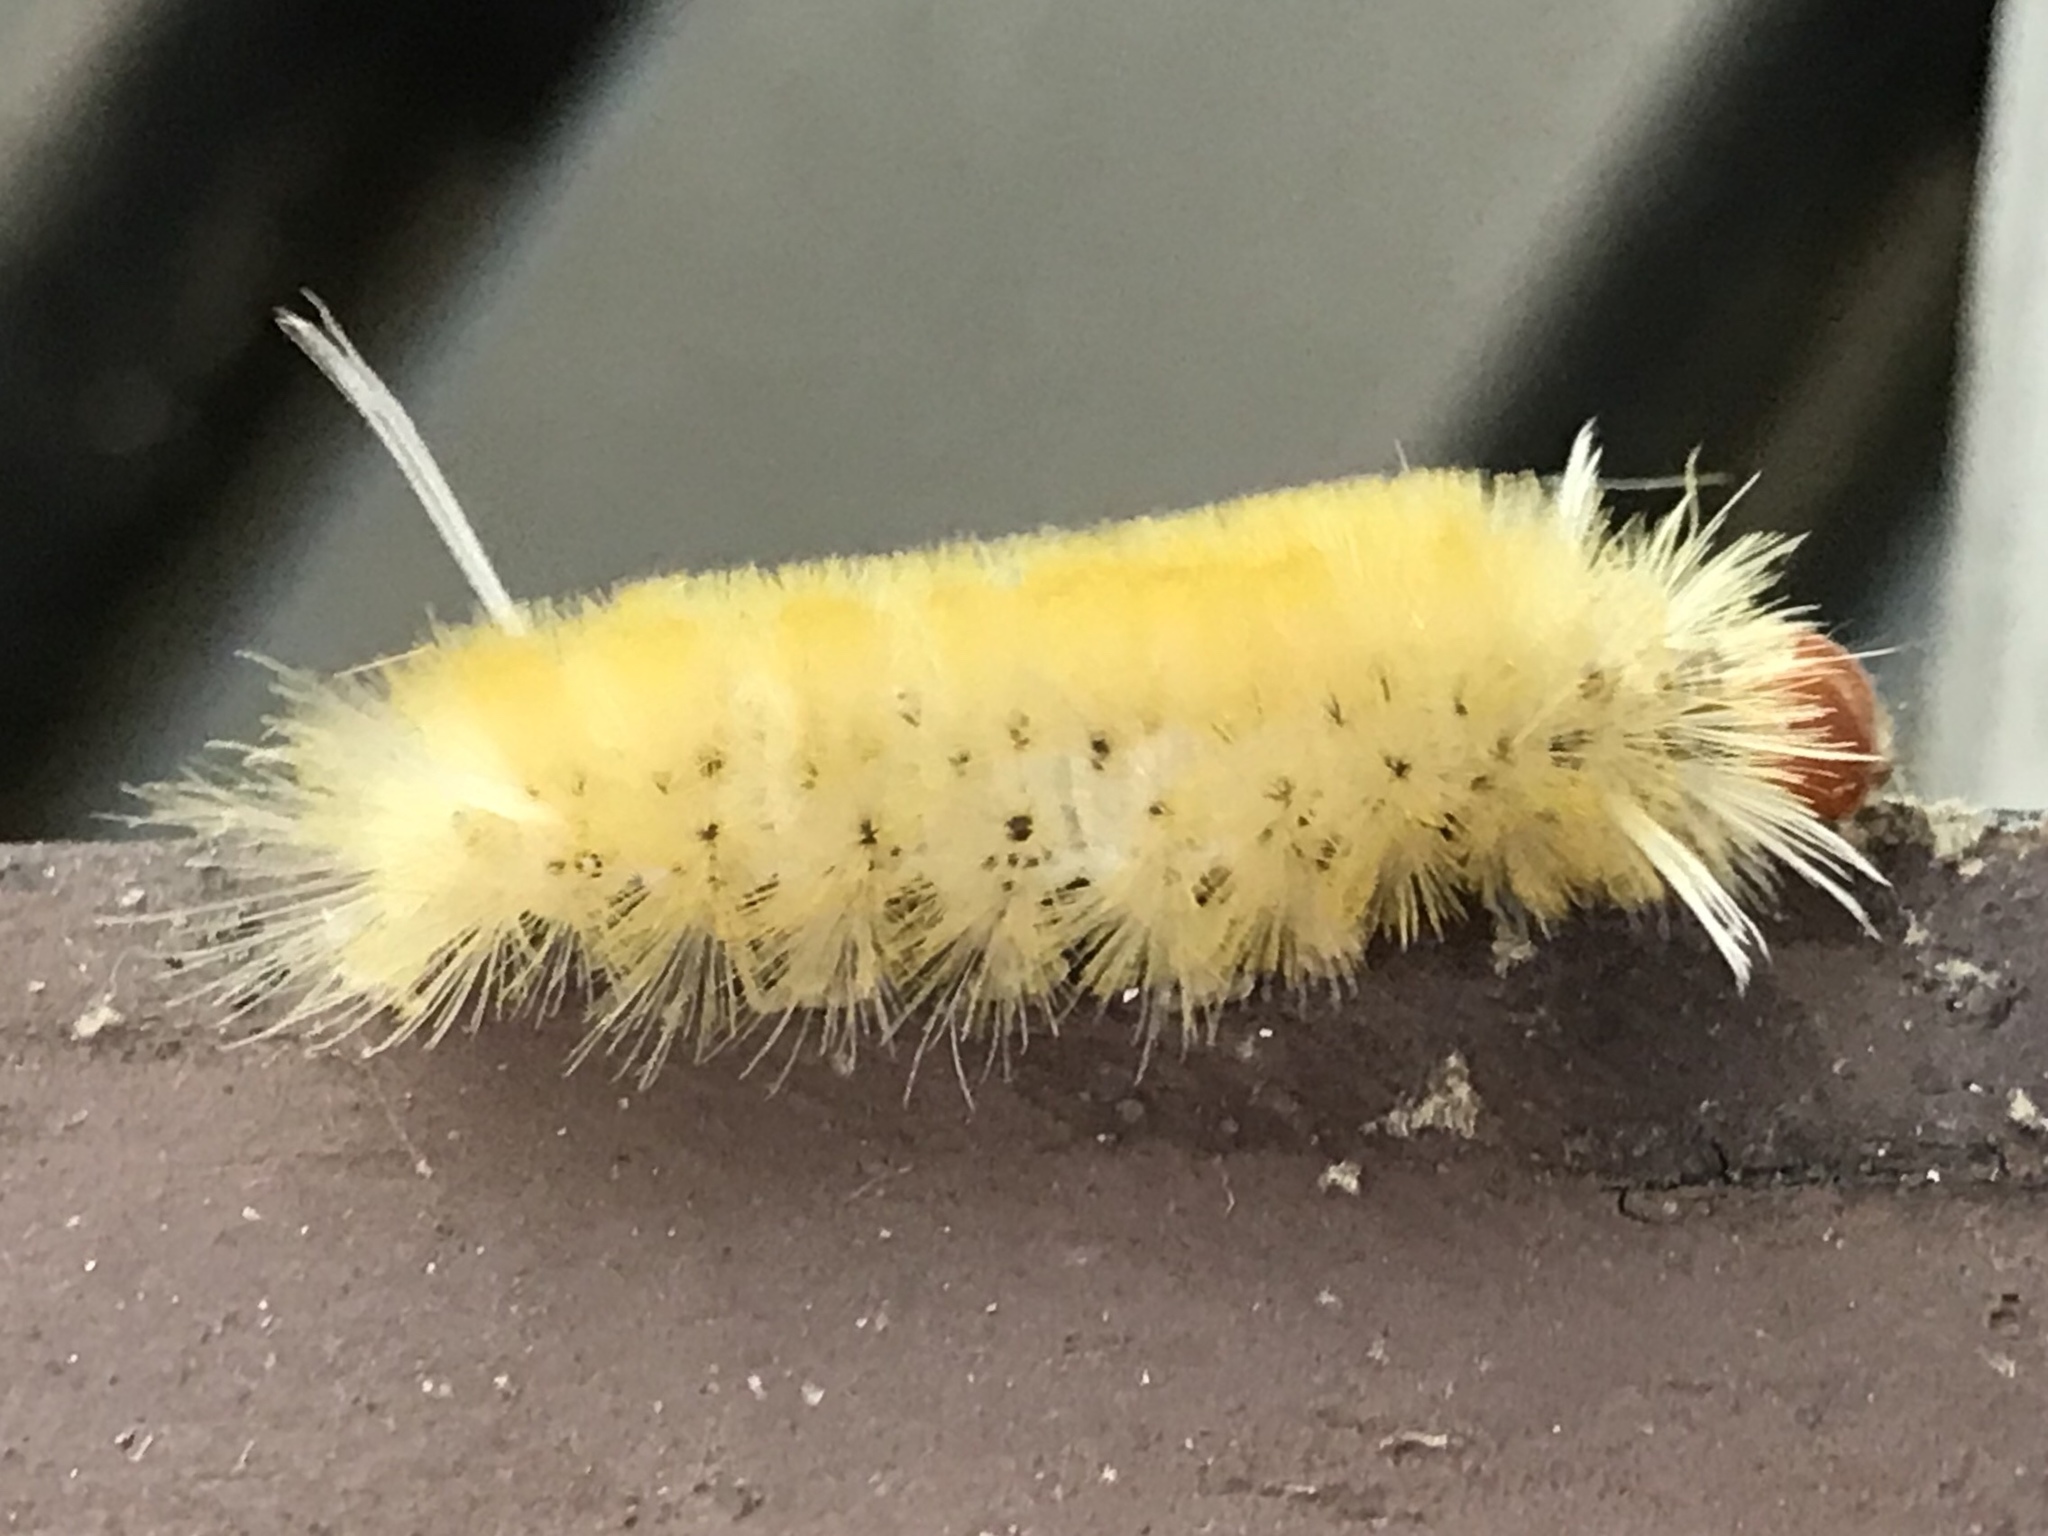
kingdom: Animalia
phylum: Arthropoda
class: Insecta
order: Lepidoptera
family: Erebidae
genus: Halysidota
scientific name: Halysidota harrisii
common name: Sycamore tussock moth
